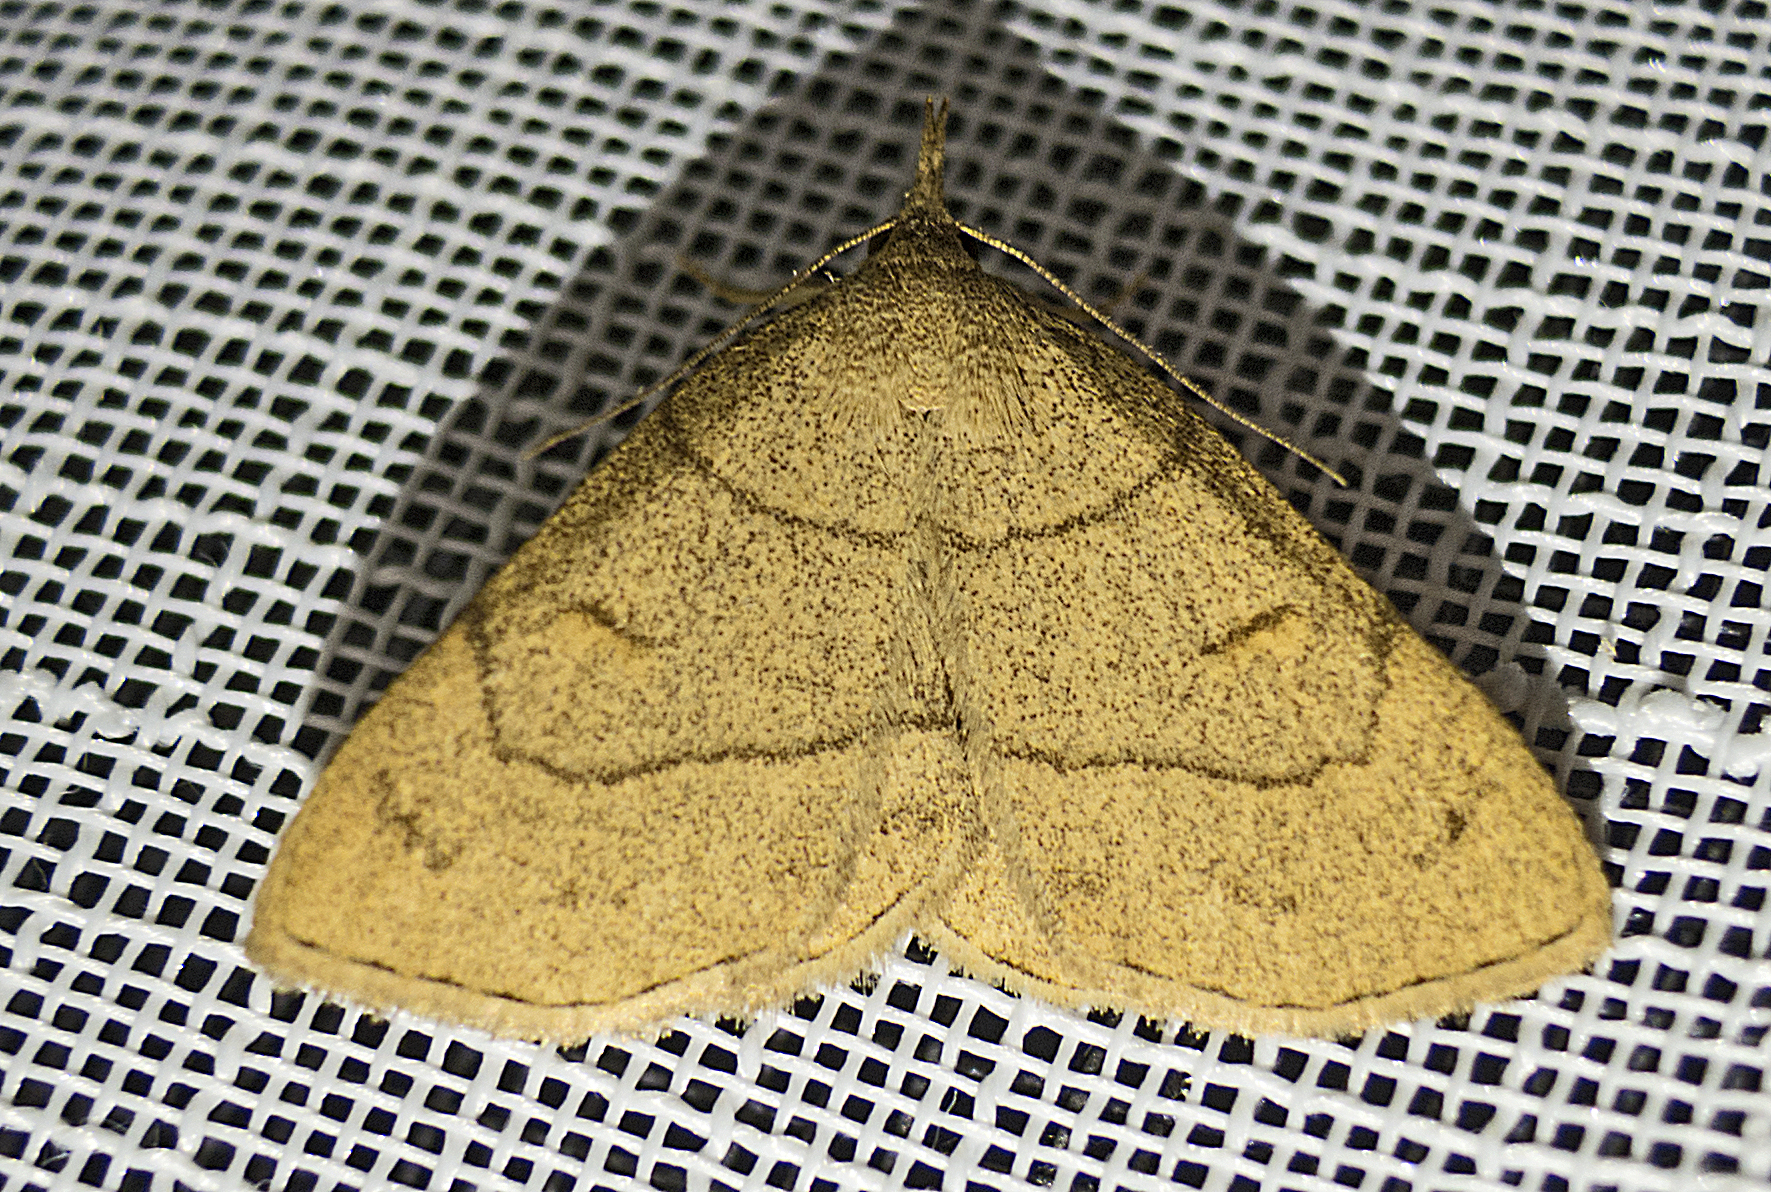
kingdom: Animalia
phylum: Arthropoda
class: Insecta
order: Lepidoptera
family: Erebidae
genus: Paracolax
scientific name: Paracolax tristalis
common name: Clay fan-foot
